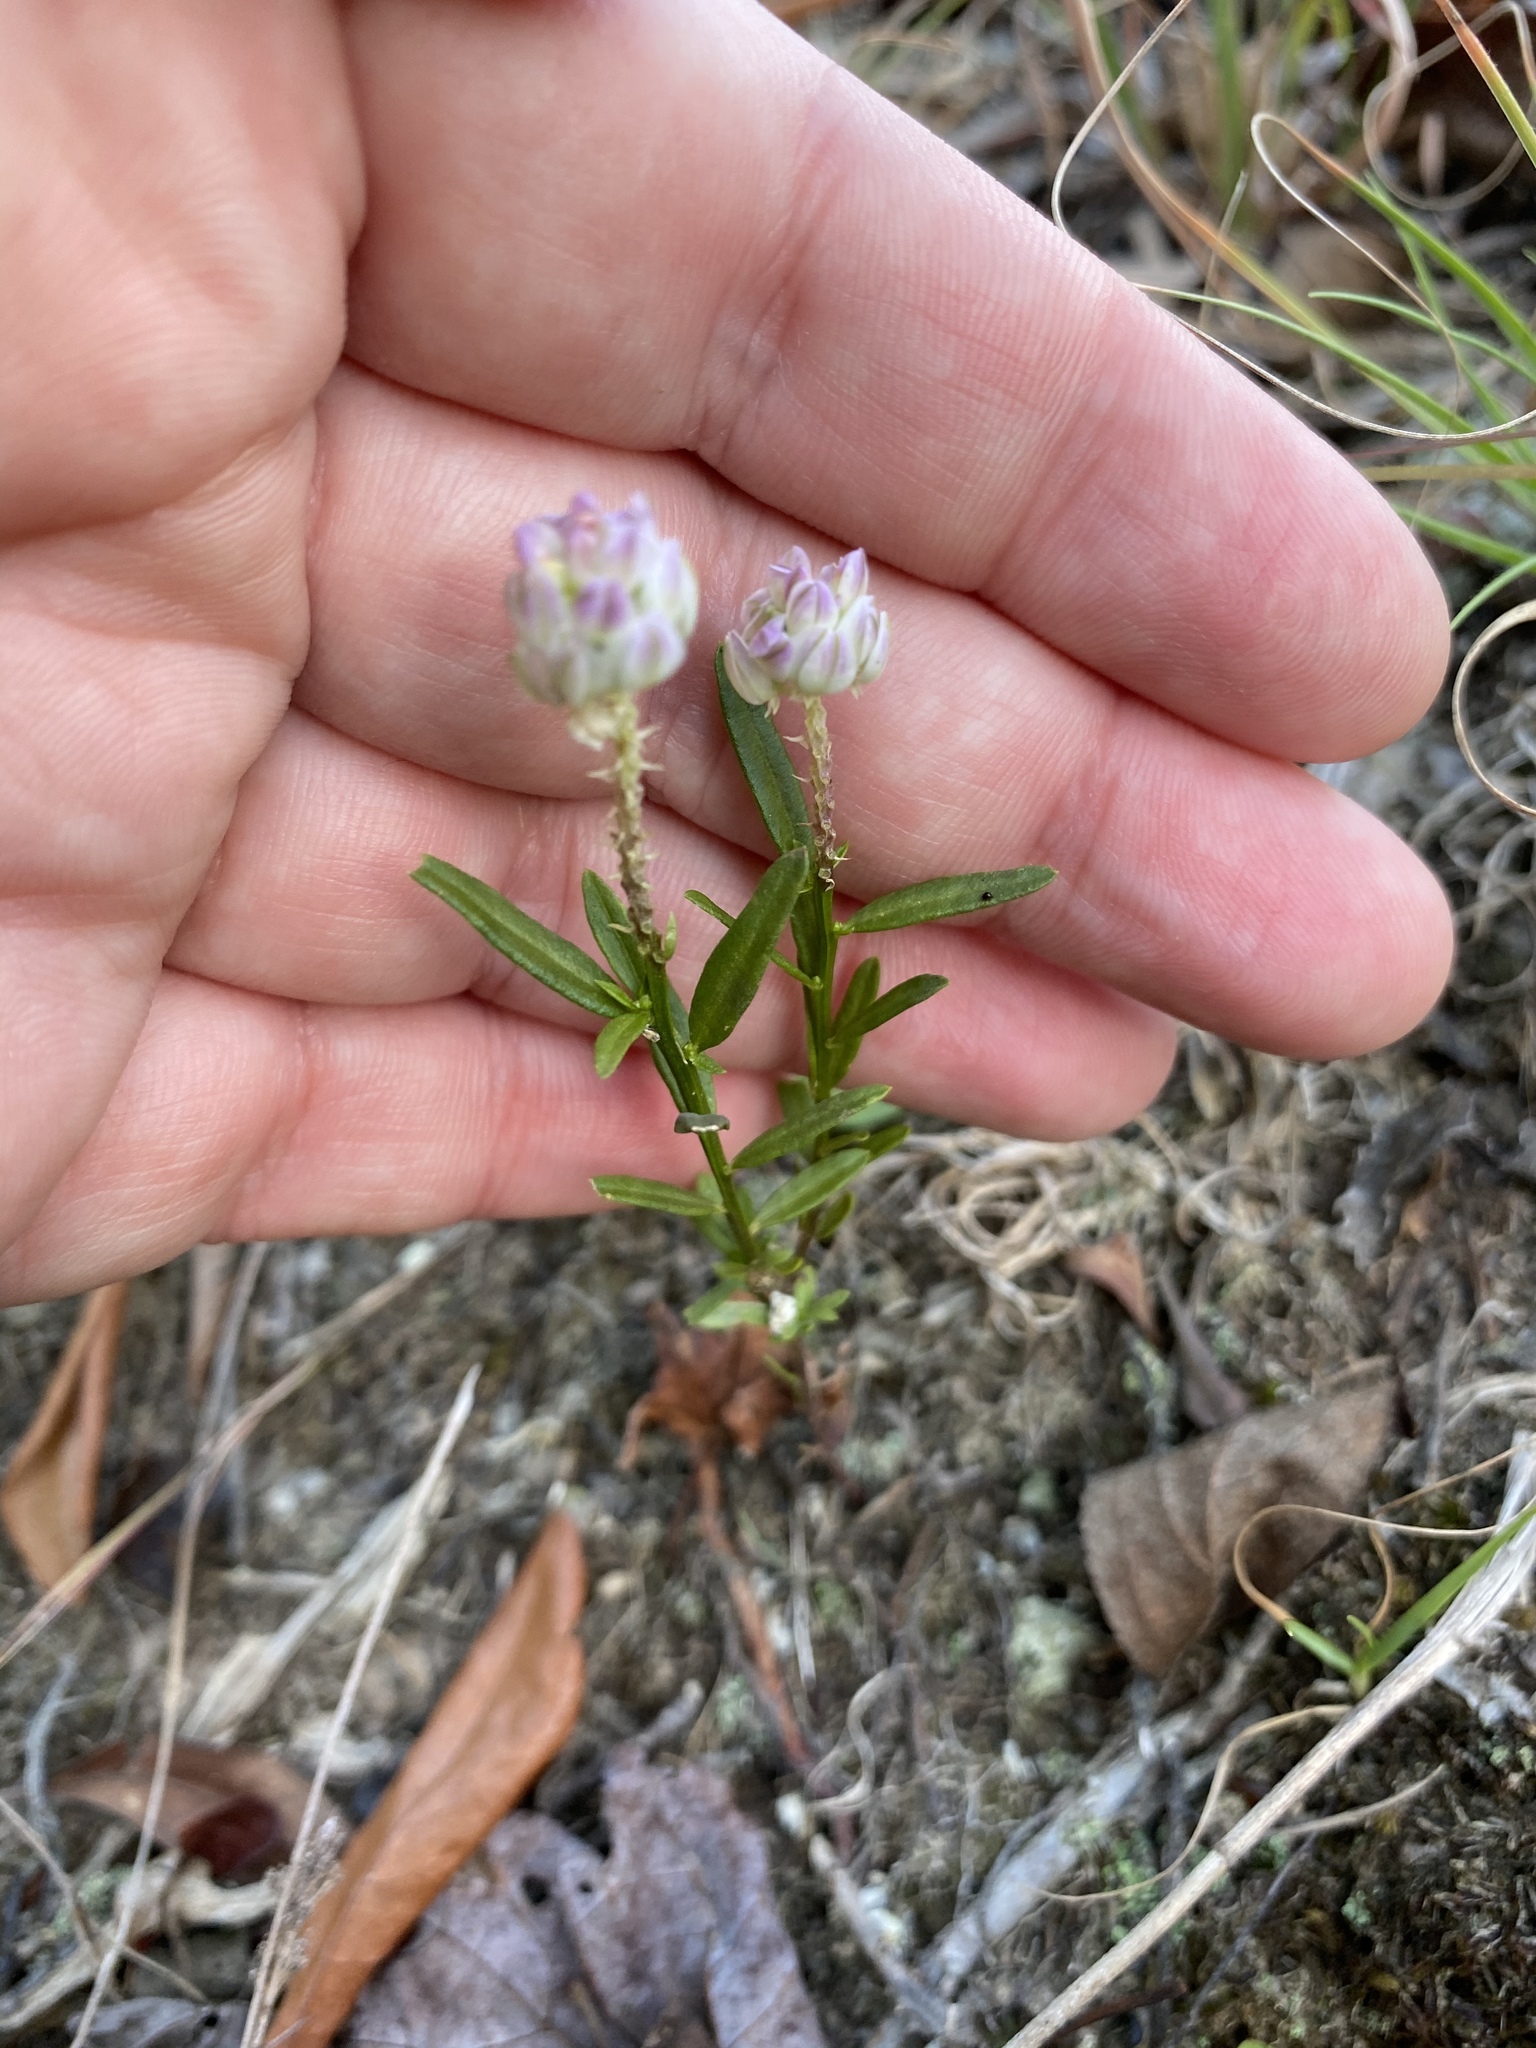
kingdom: Plantae
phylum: Tracheophyta
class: Magnoliopsida
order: Fabales
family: Polygalaceae
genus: Polygala
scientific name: Polygala sanguinea
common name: Blood milkwort
